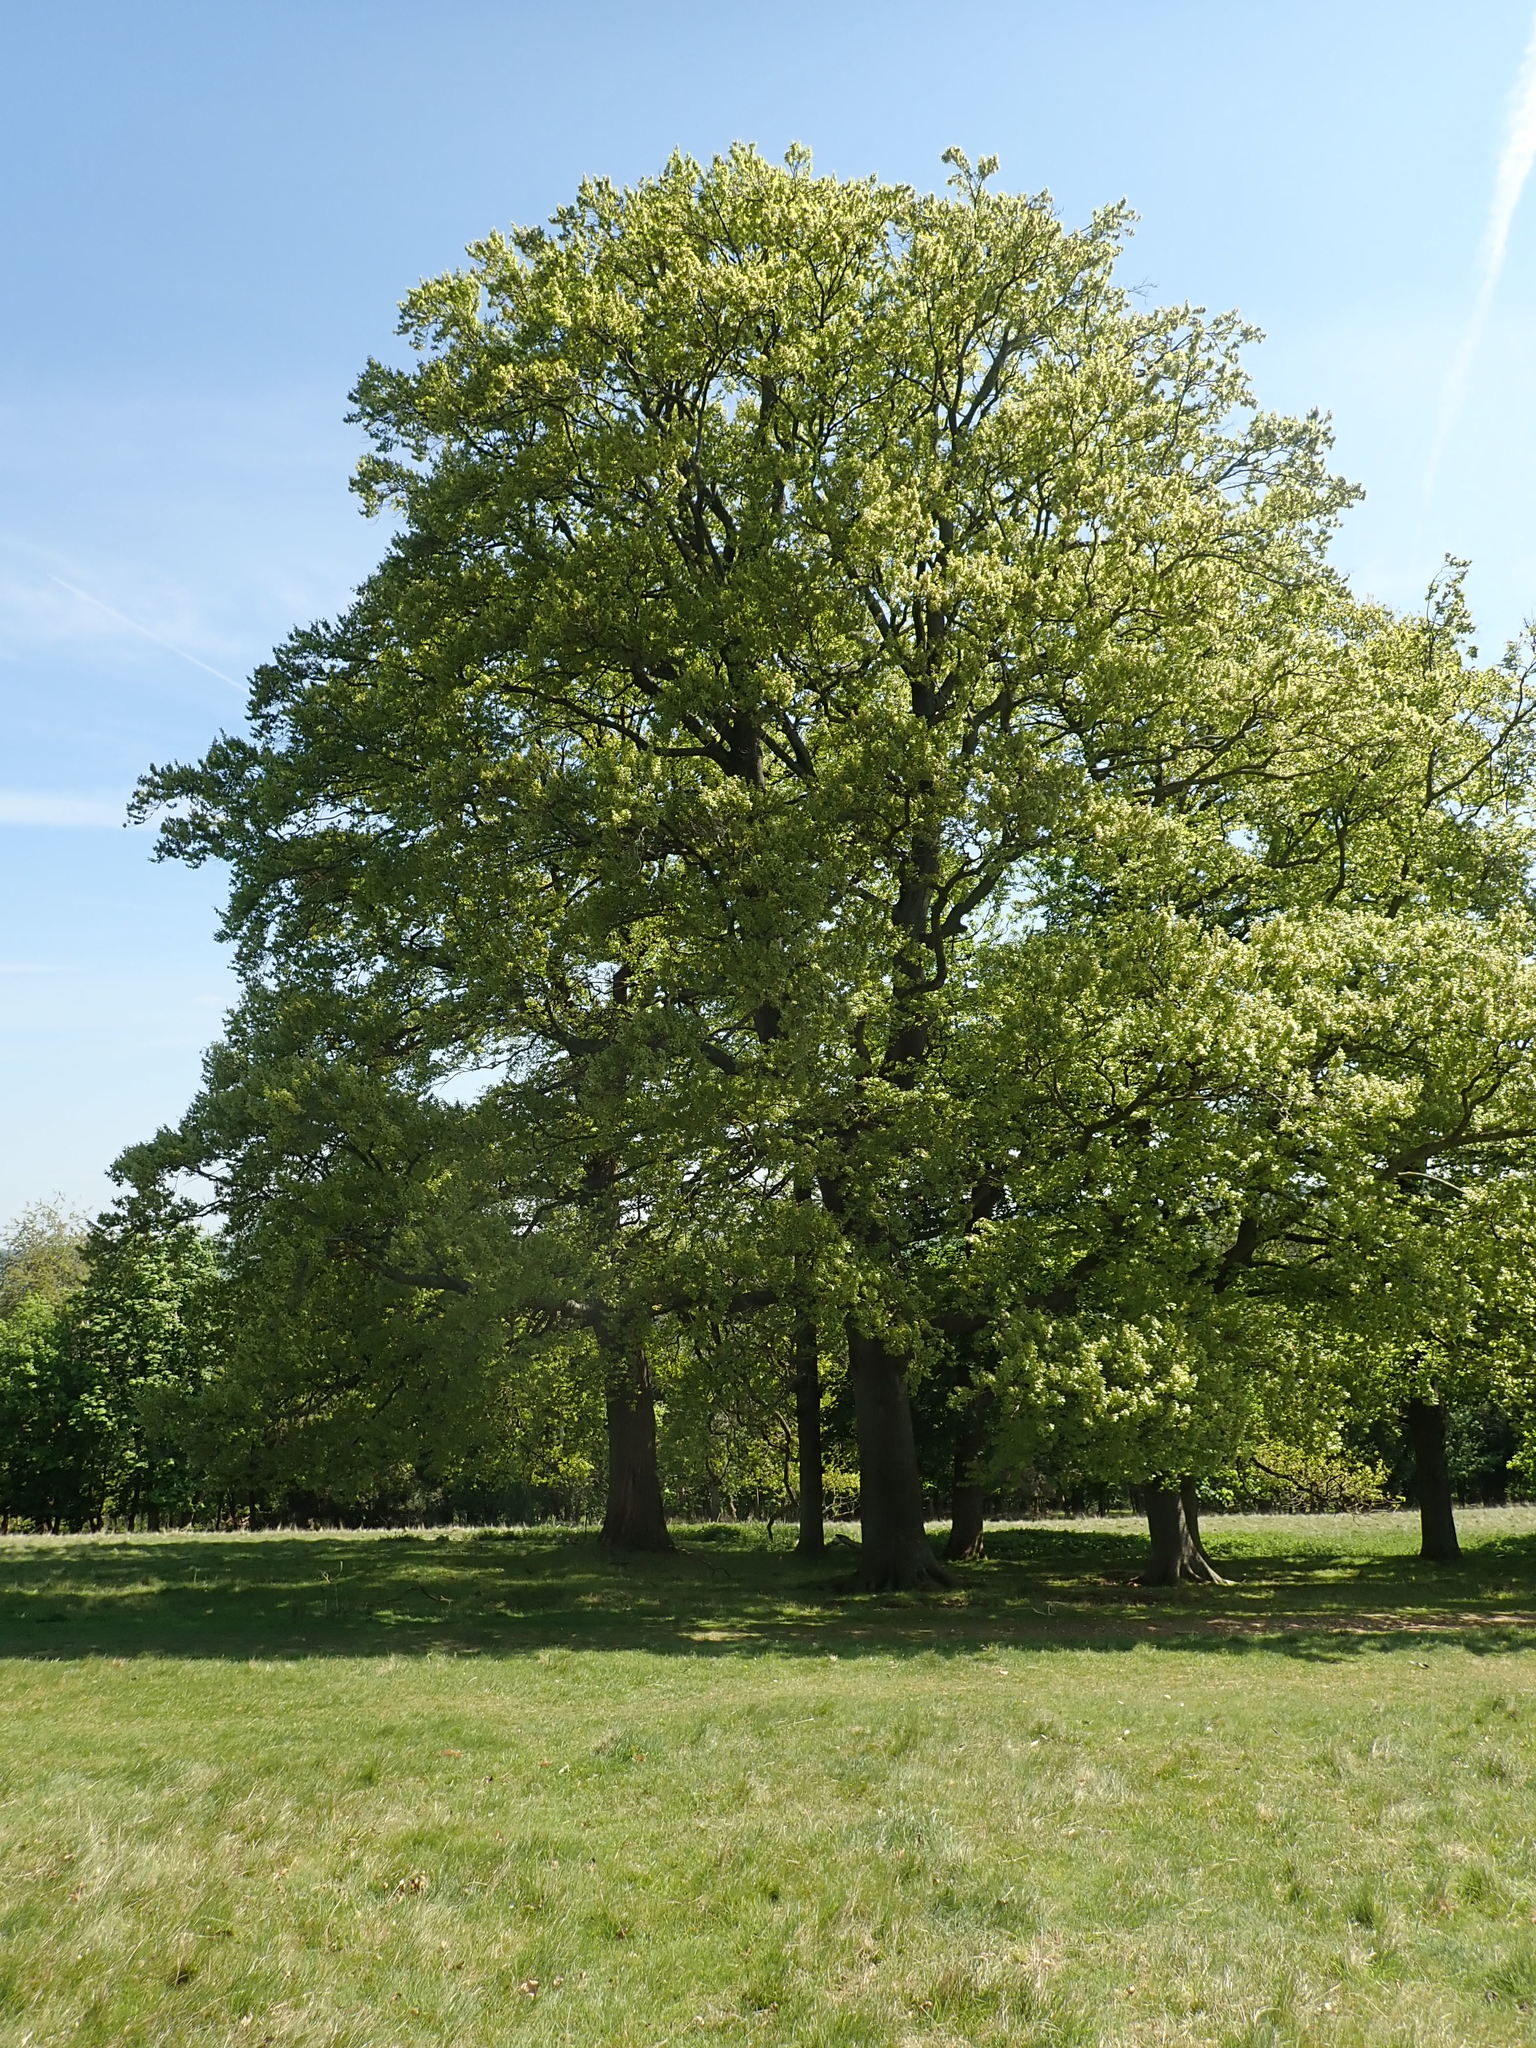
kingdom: Plantae
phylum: Tracheophyta
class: Magnoliopsida
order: Fagales
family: Fagaceae
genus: Fagus
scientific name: Fagus sylvatica
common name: Beech
